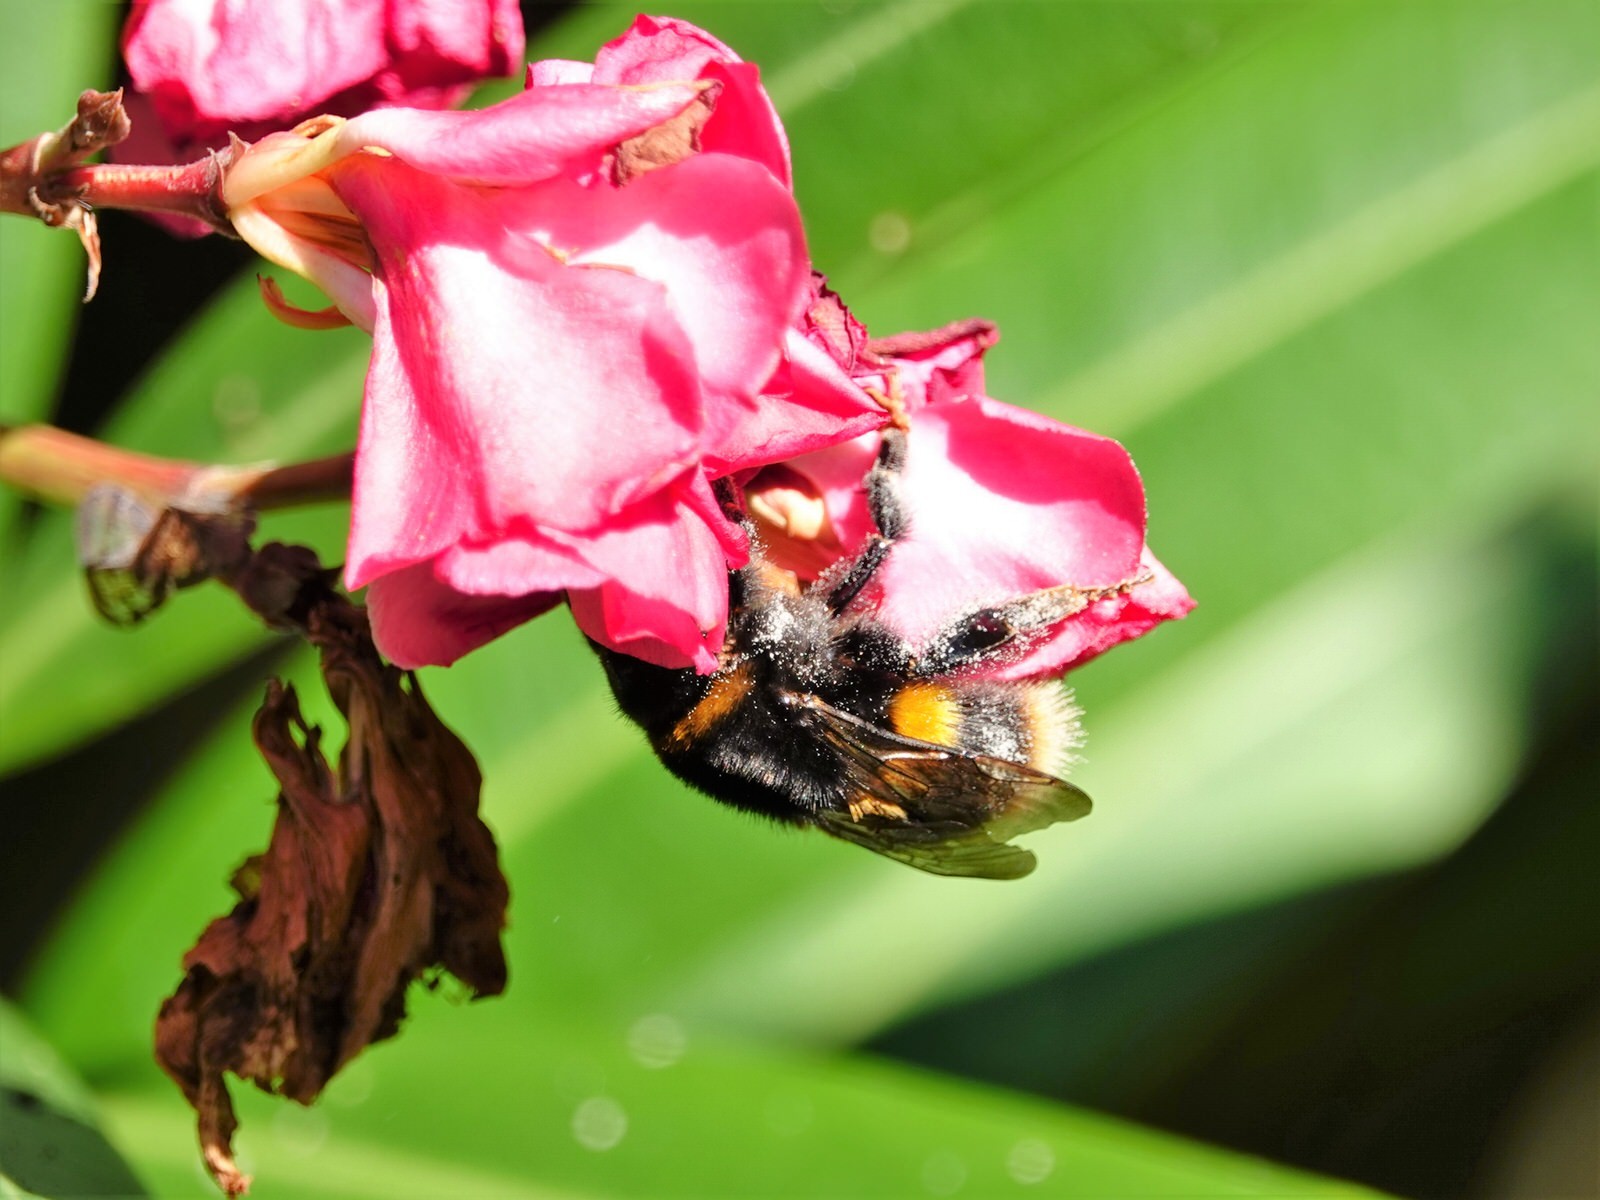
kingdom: Animalia
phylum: Arthropoda
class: Insecta
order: Hymenoptera
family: Apidae
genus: Bombus
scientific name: Bombus terrestris
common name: Buff-tailed bumblebee
